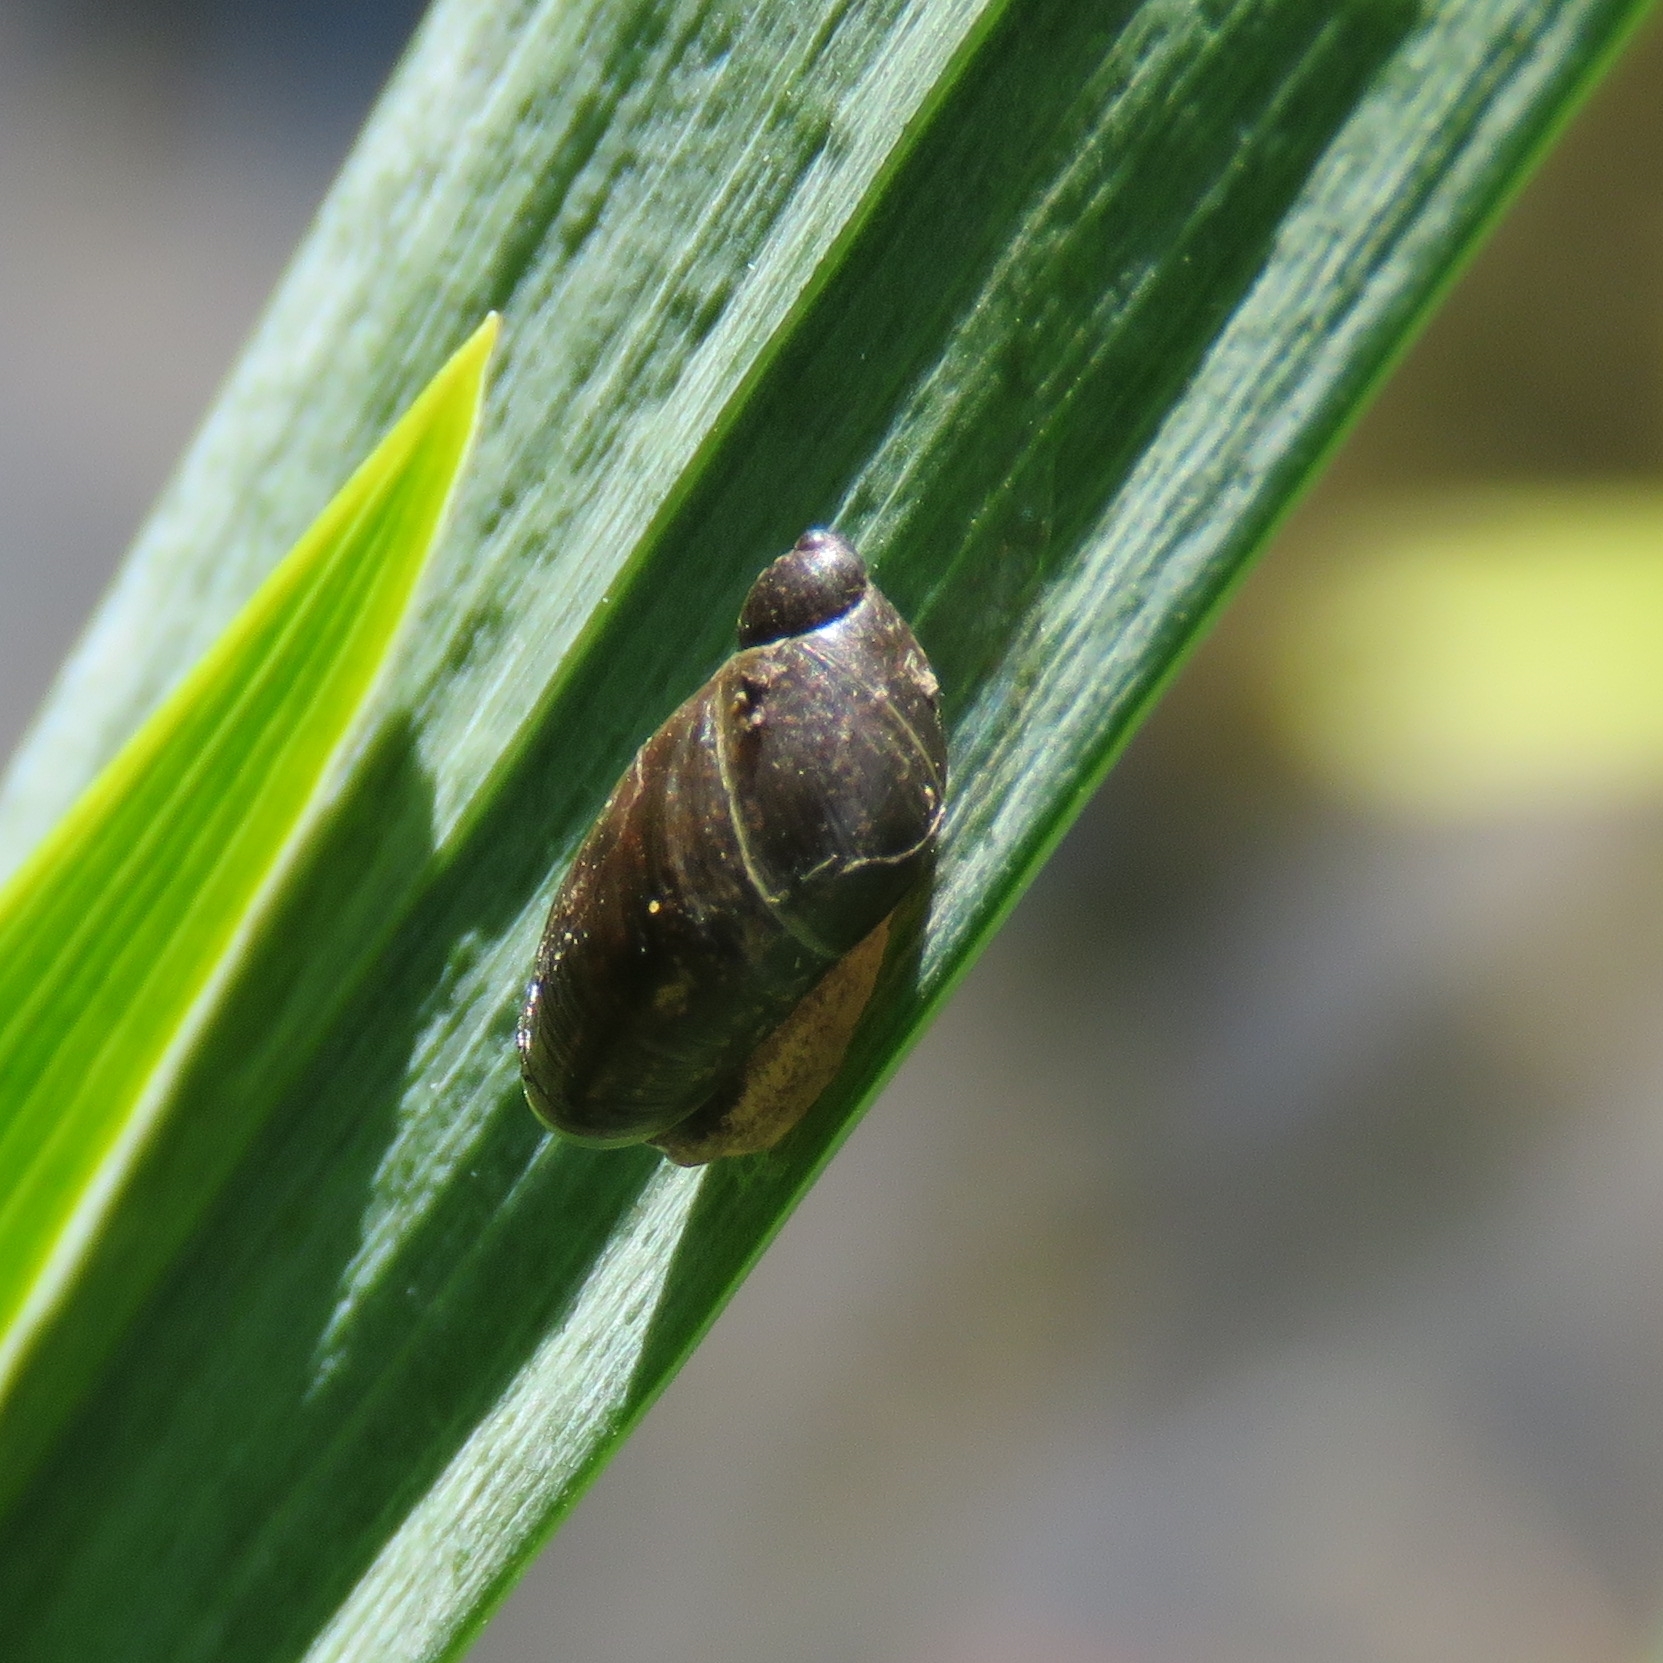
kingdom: Animalia
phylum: Mollusca
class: Gastropoda
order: Stylommatophora
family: Succineidae
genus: Oxyloma
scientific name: Oxyloma elegans
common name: Pfeiffer's amber snail
